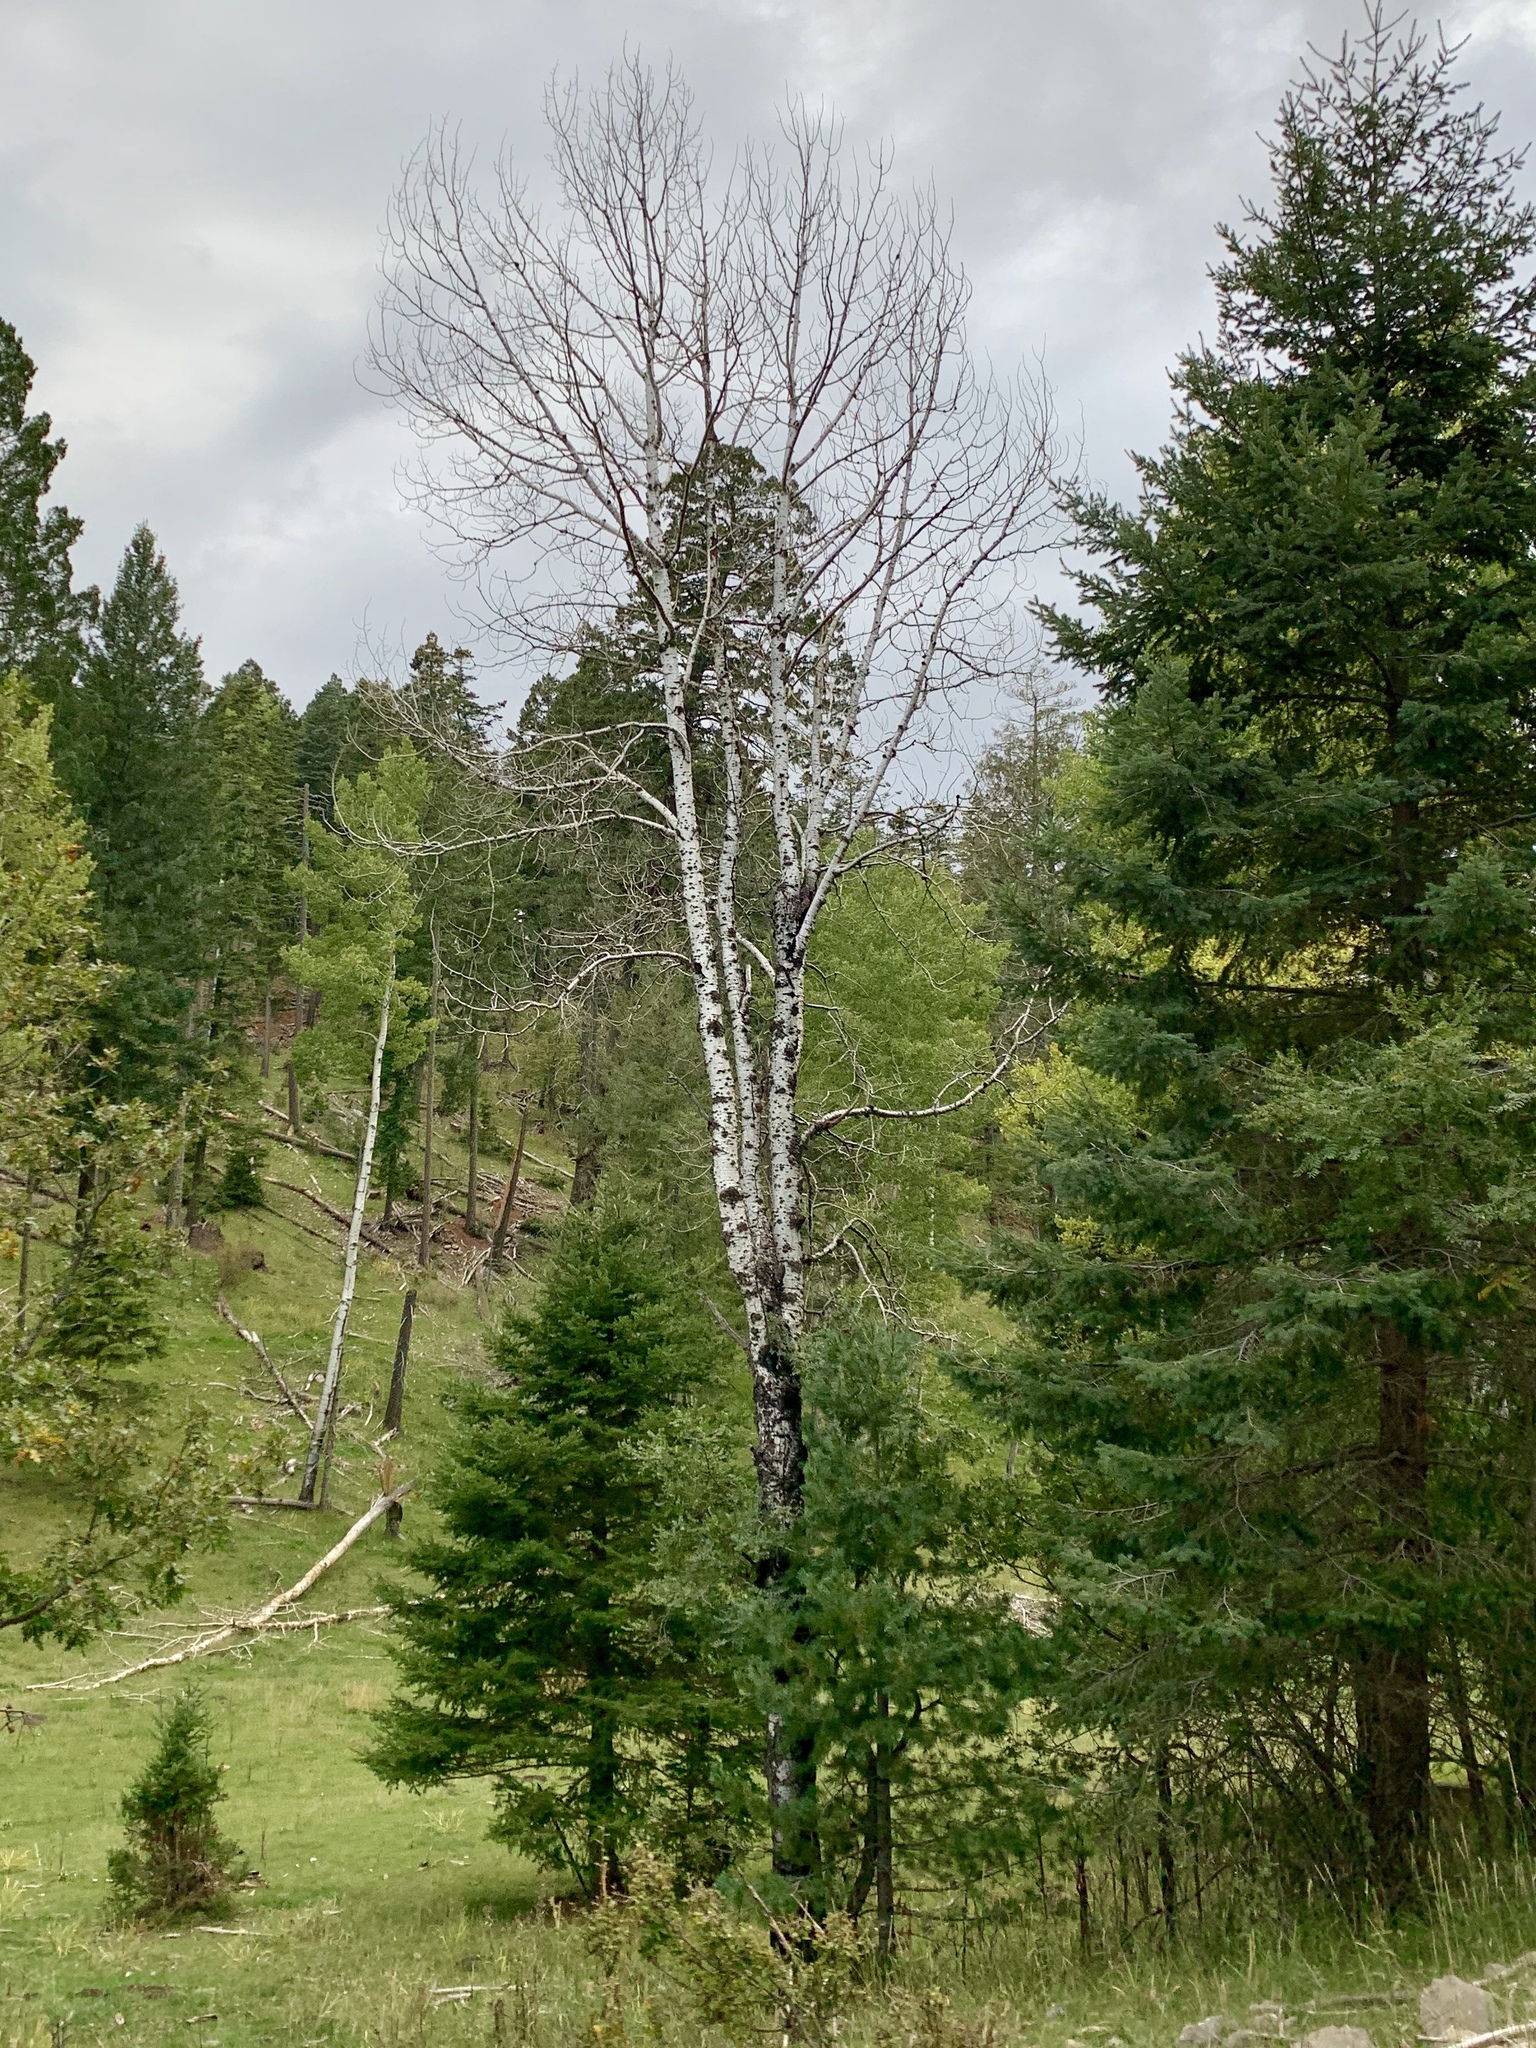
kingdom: Plantae
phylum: Tracheophyta
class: Magnoliopsida
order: Malpighiales
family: Salicaceae
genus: Populus
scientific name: Populus tremuloides
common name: Quaking aspen
